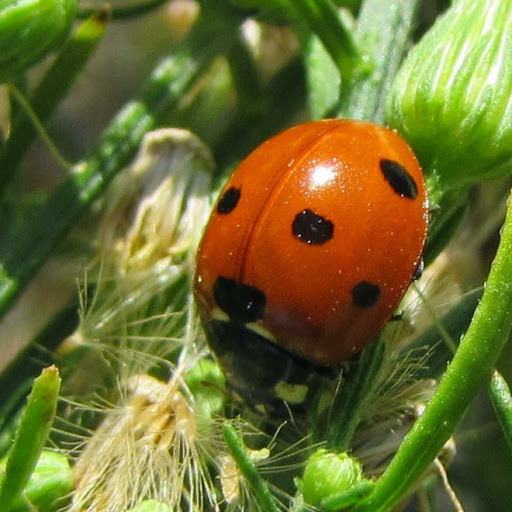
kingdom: Animalia
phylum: Arthropoda
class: Insecta
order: Coleoptera
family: Coccinellidae
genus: Coccinella
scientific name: Coccinella septempunctata
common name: Sevenspotted lady beetle
